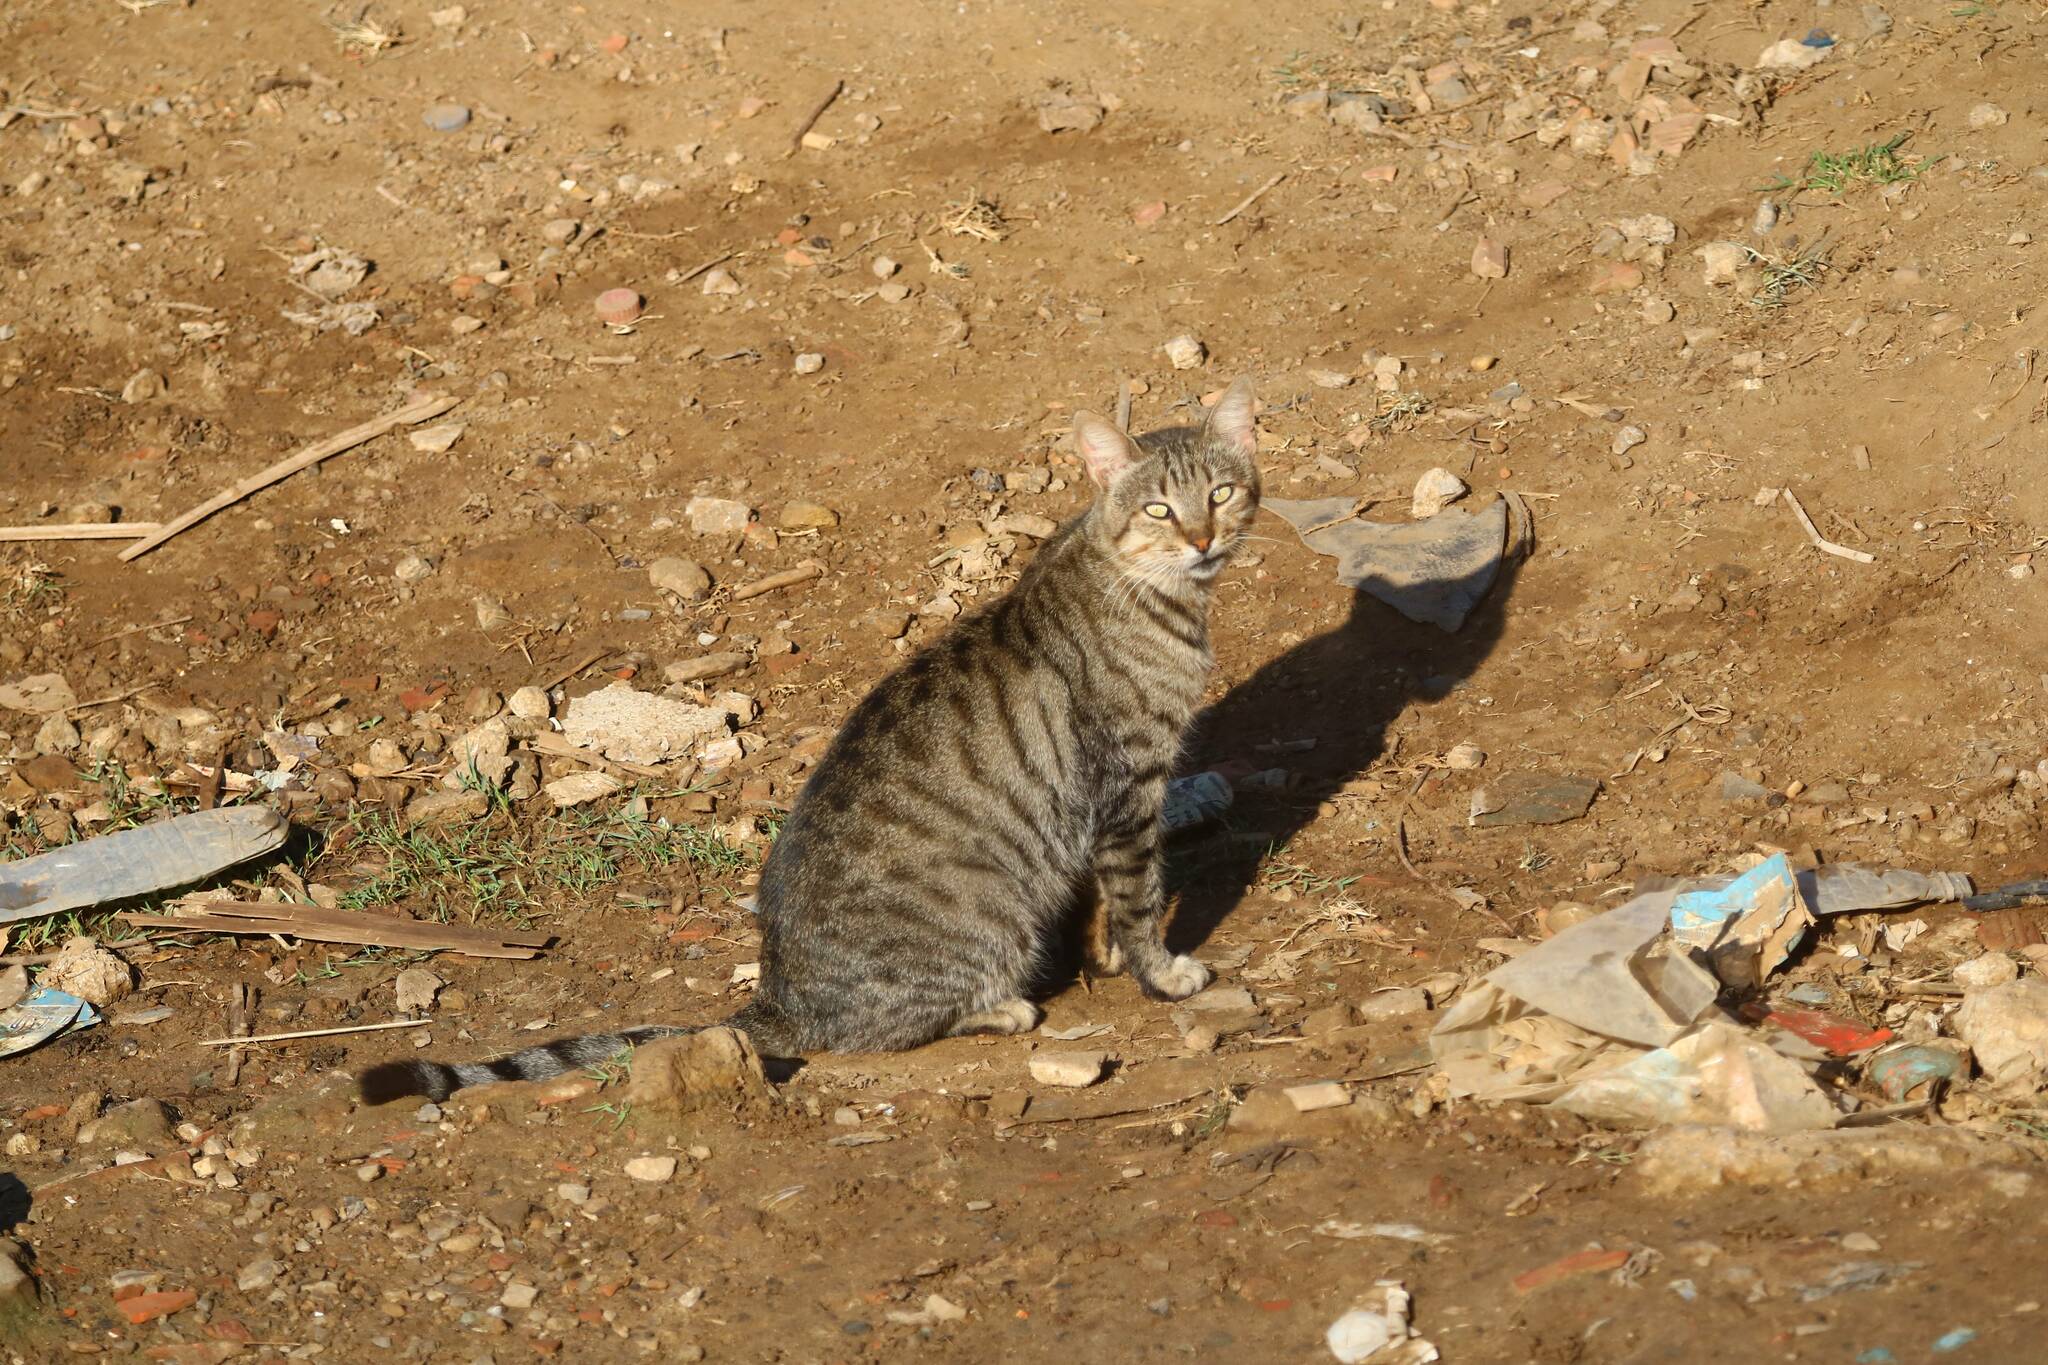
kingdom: Animalia
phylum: Chordata
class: Mammalia
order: Carnivora
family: Felidae
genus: Felis
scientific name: Felis catus
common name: Domestic cat
